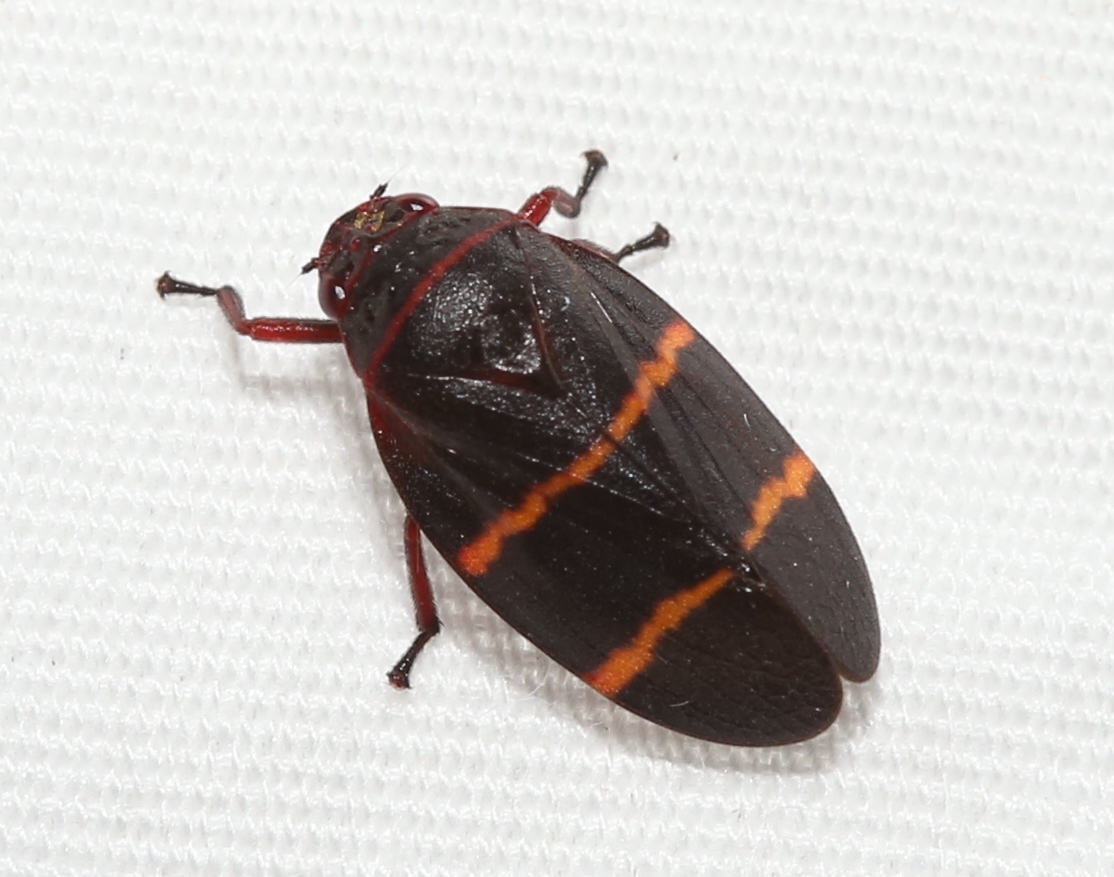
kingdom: Animalia
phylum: Arthropoda
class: Insecta
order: Hemiptera
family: Cercopidae
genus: Prosapia
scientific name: Prosapia bicincta
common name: Twolined spittlebug
